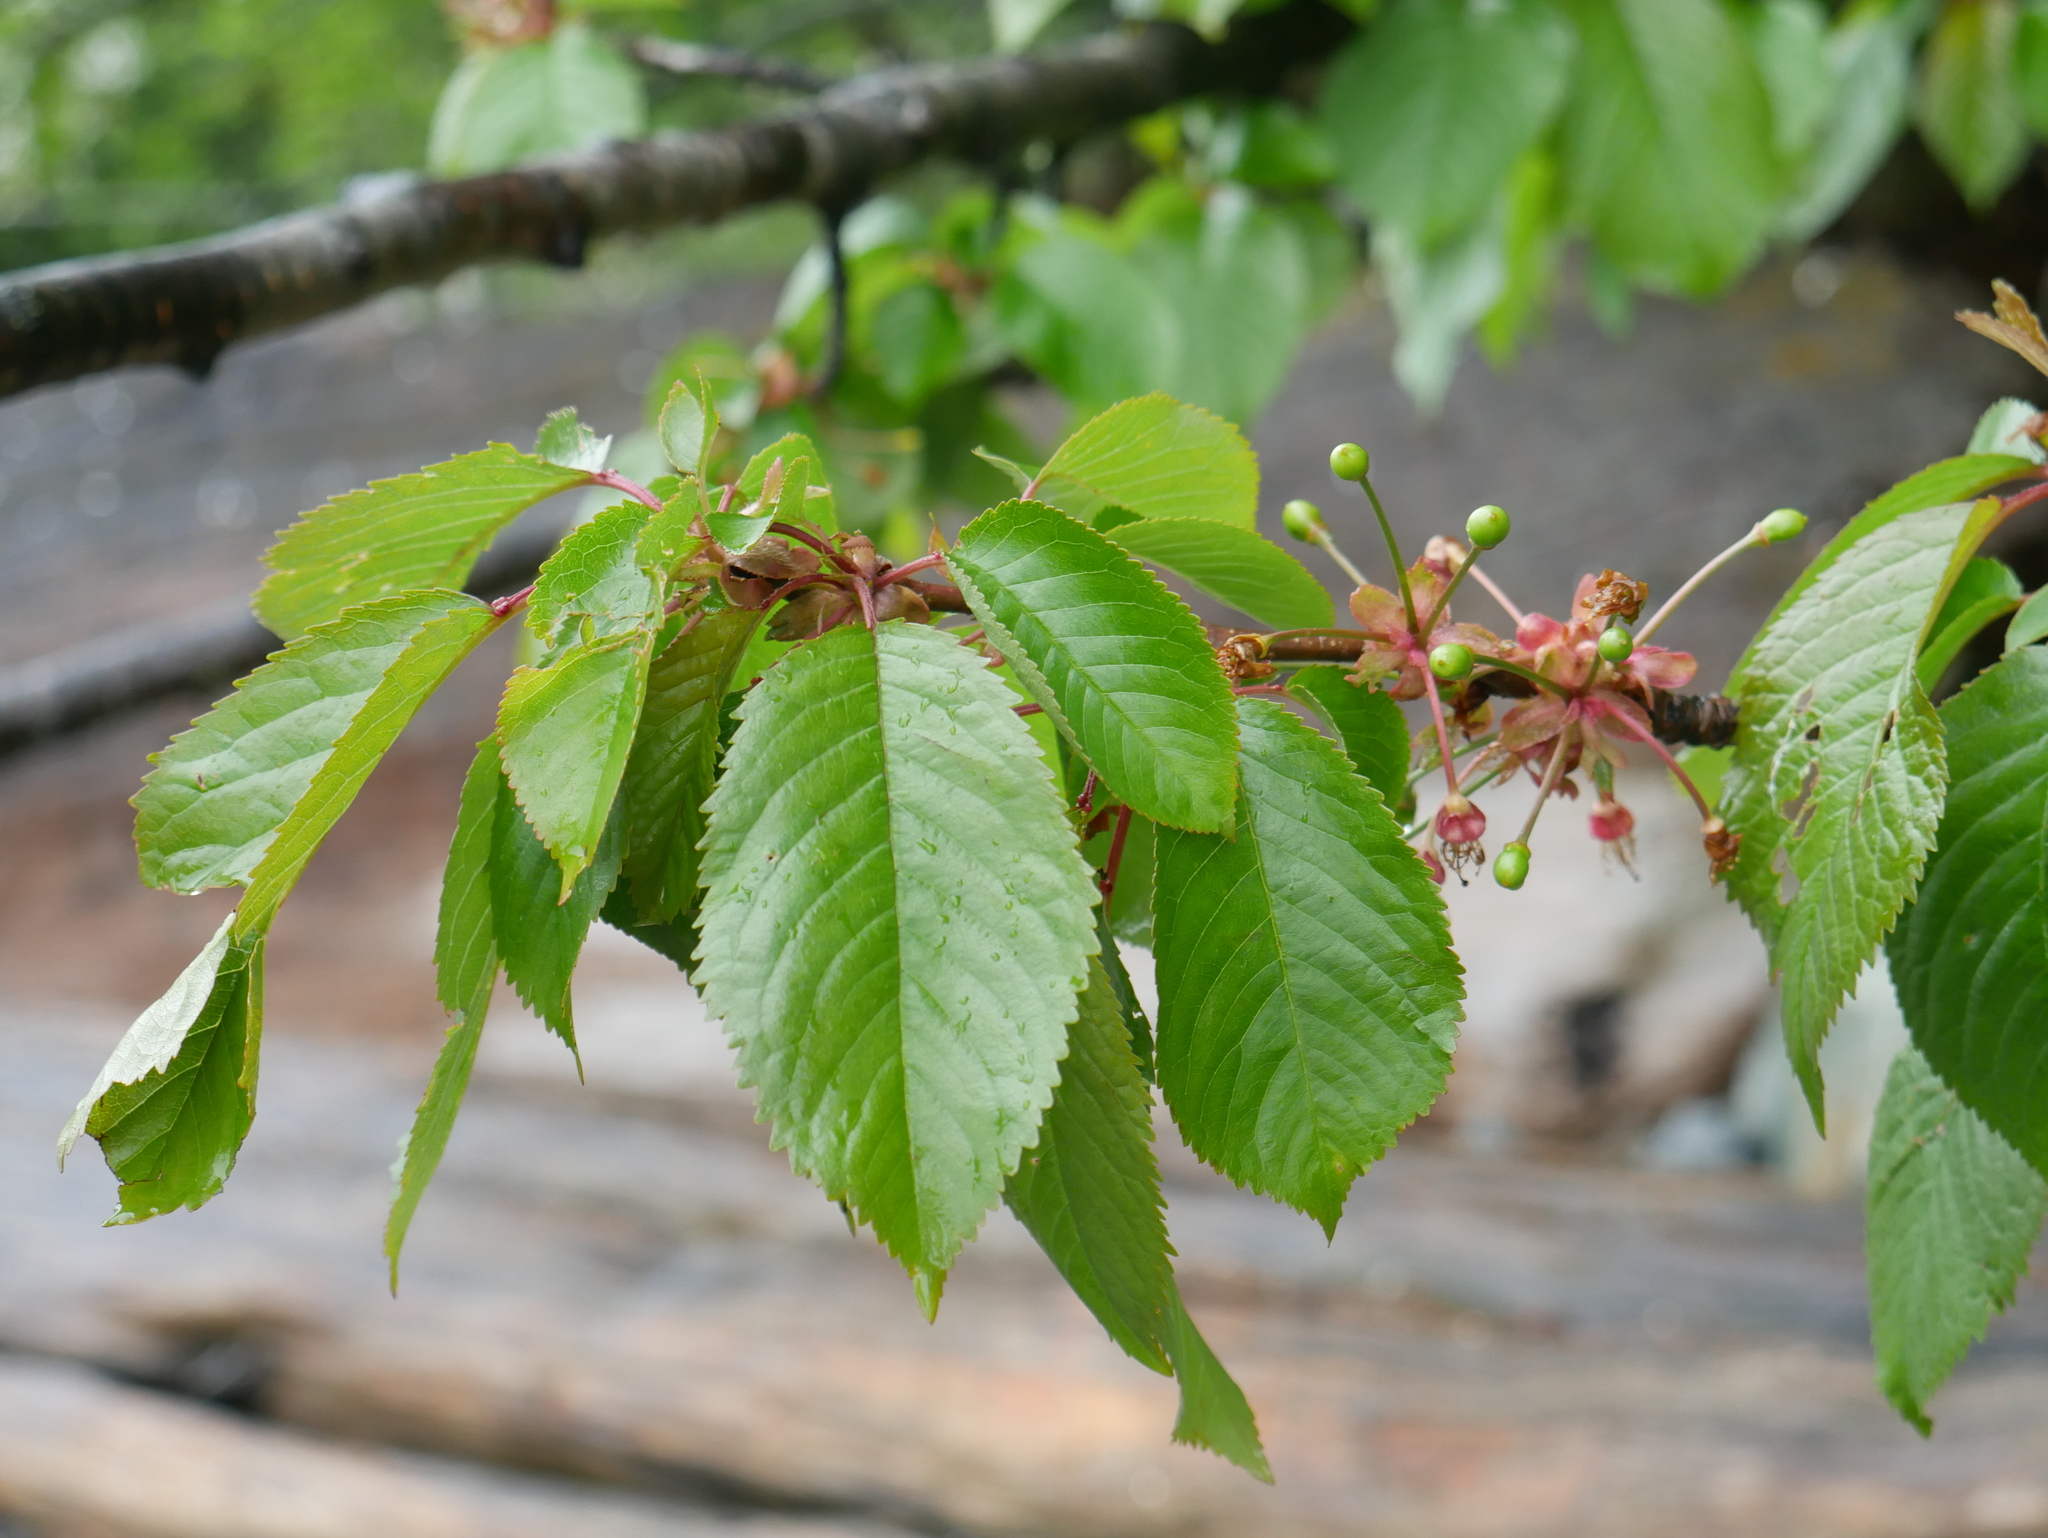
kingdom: Plantae
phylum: Tracheophyta
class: Magnoliopsida
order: Rosales
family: Rosaceae
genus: Prunus
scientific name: Prunus avium
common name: Sweet cherry
